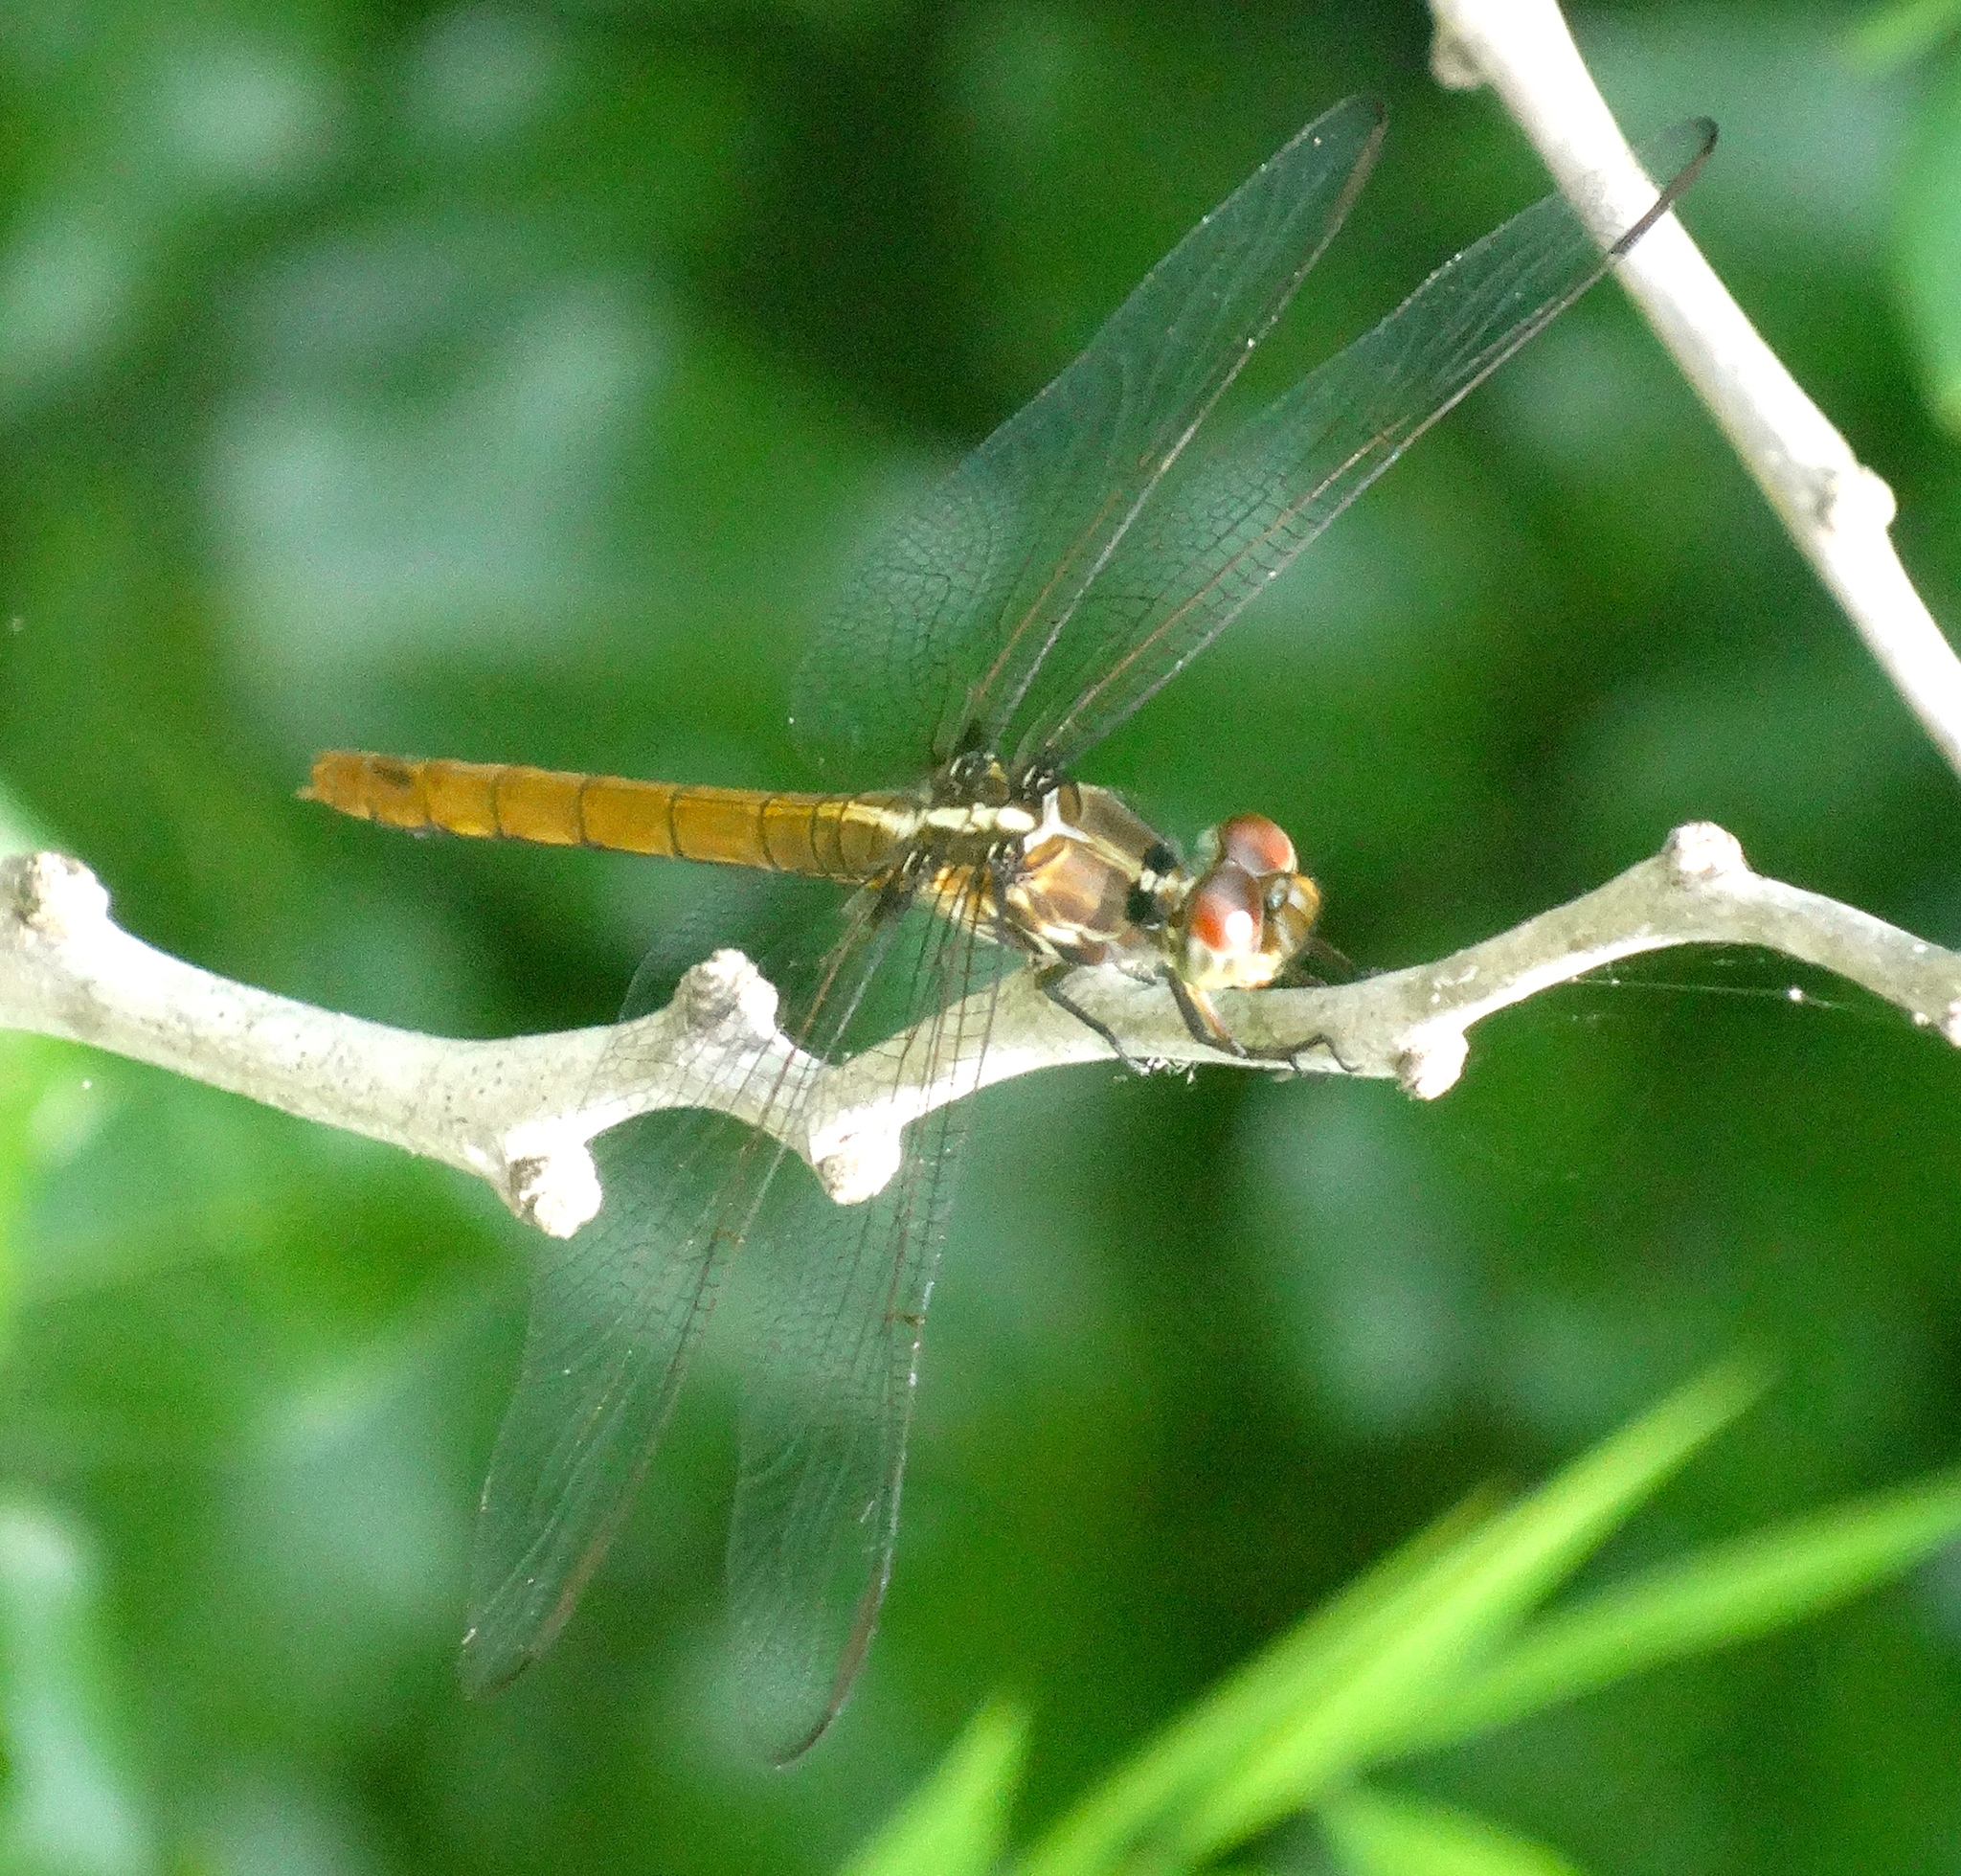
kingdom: Animalia
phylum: Arthropoda
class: Insecta
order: Odonata
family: Libellulidae
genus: Orthemis
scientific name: Orthemis ferruginea
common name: Roseate skimmer
